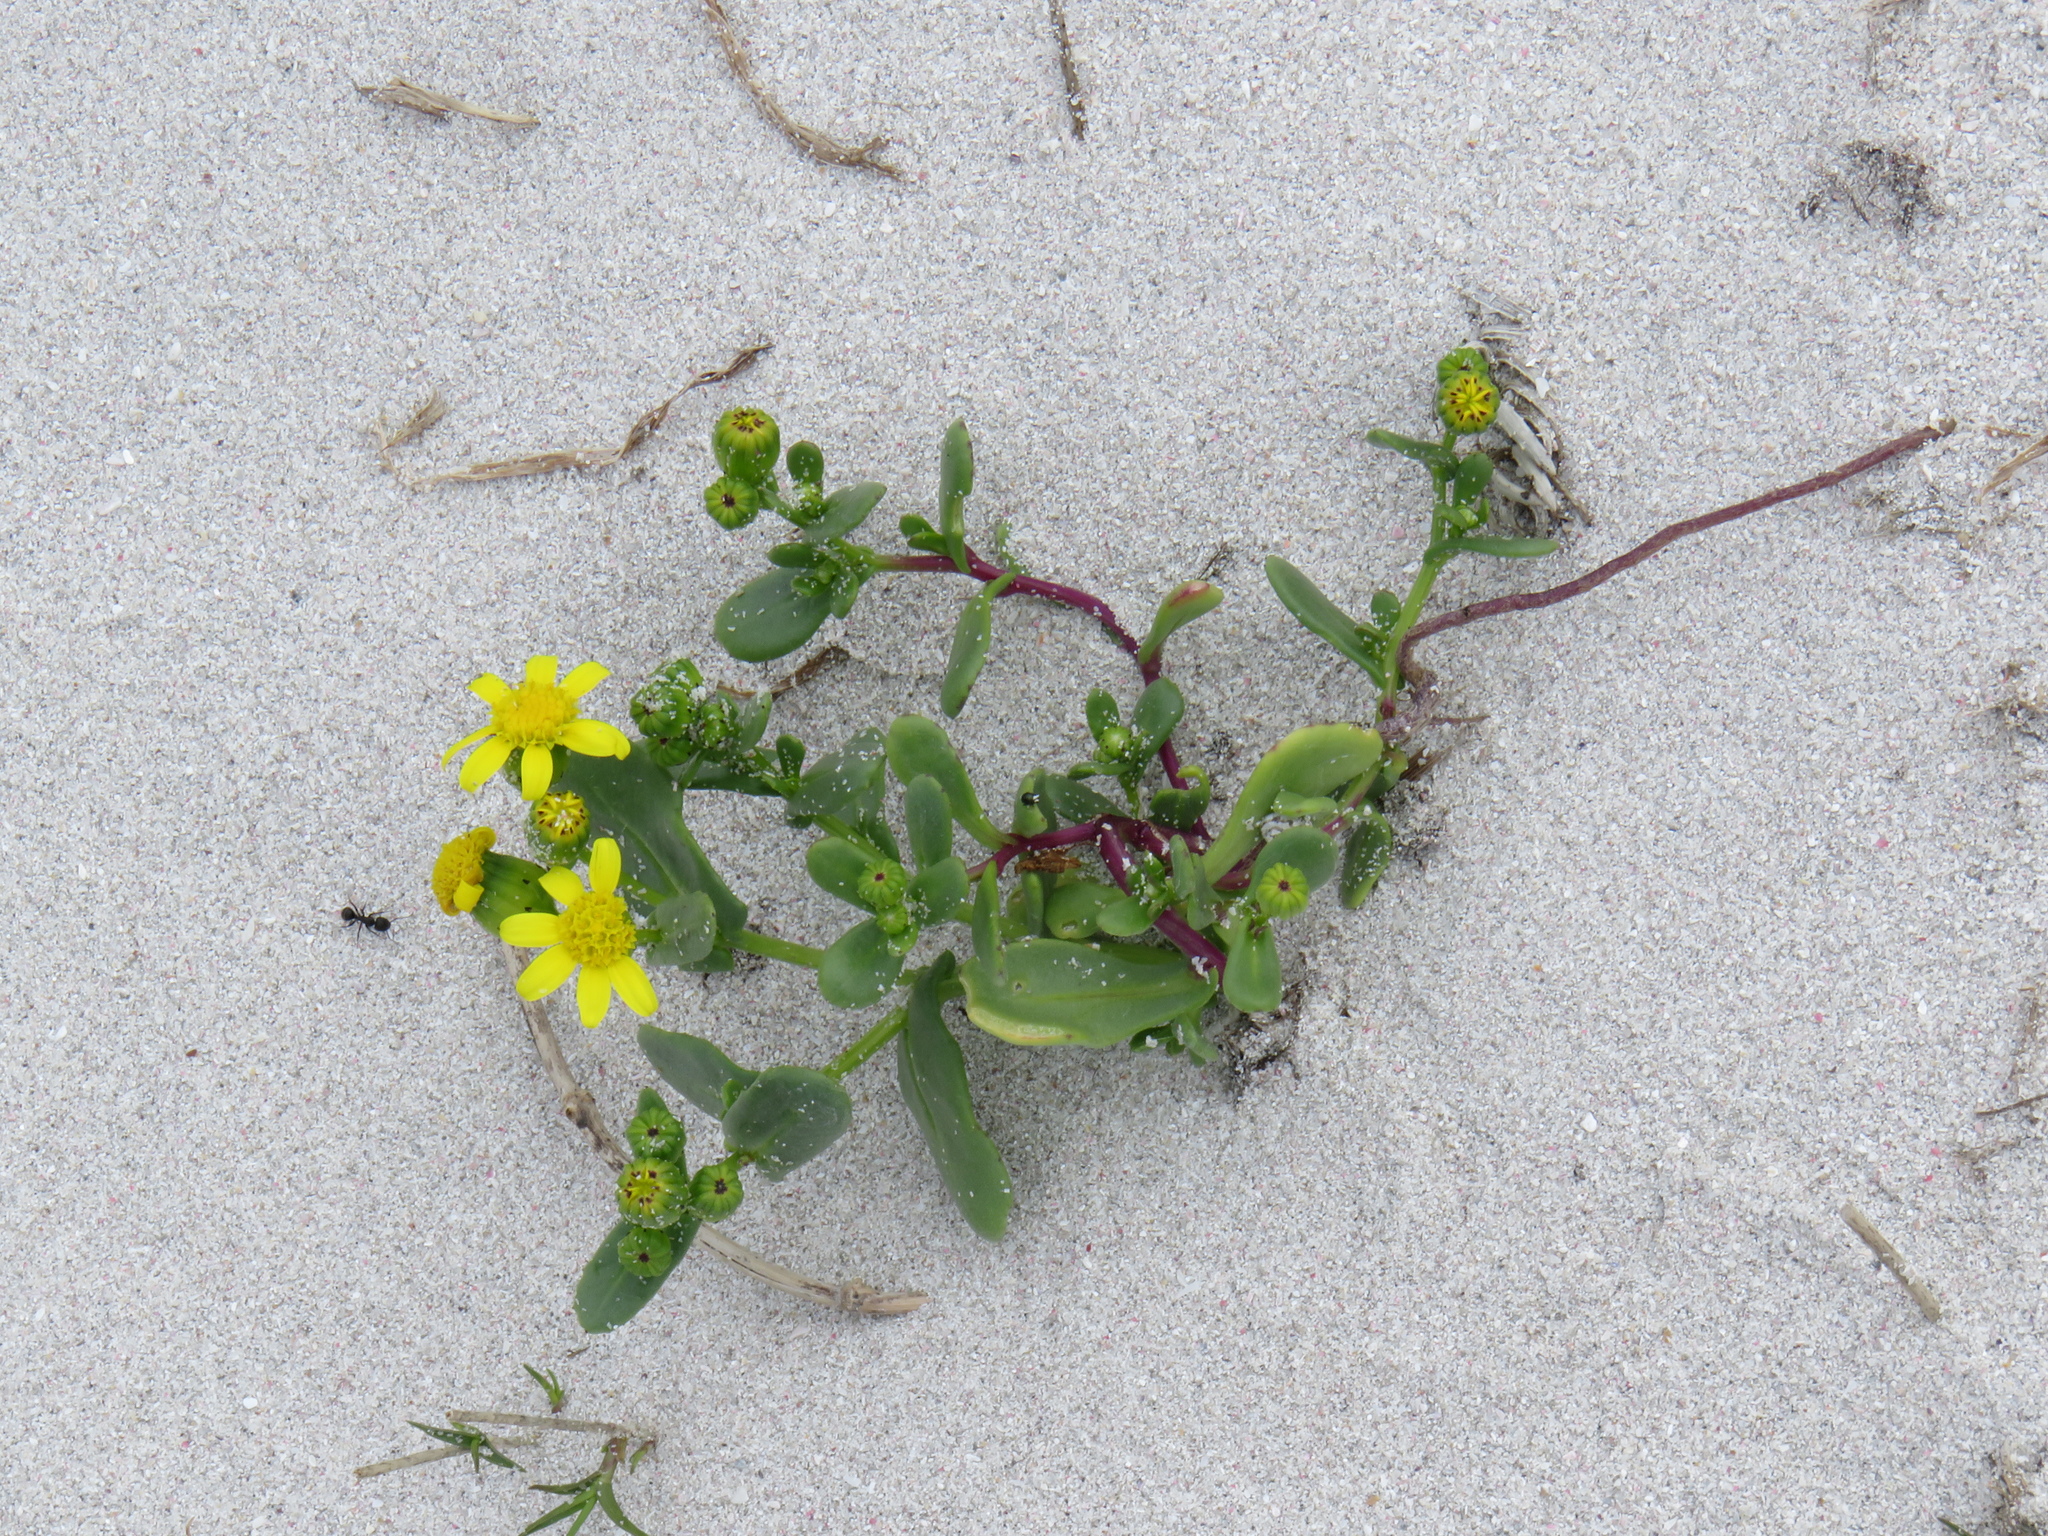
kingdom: Plantae
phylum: Tracheophyta
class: Magnoliopsida
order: Asterales
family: Asteraceae
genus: Senecio
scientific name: Senecio maritimus
